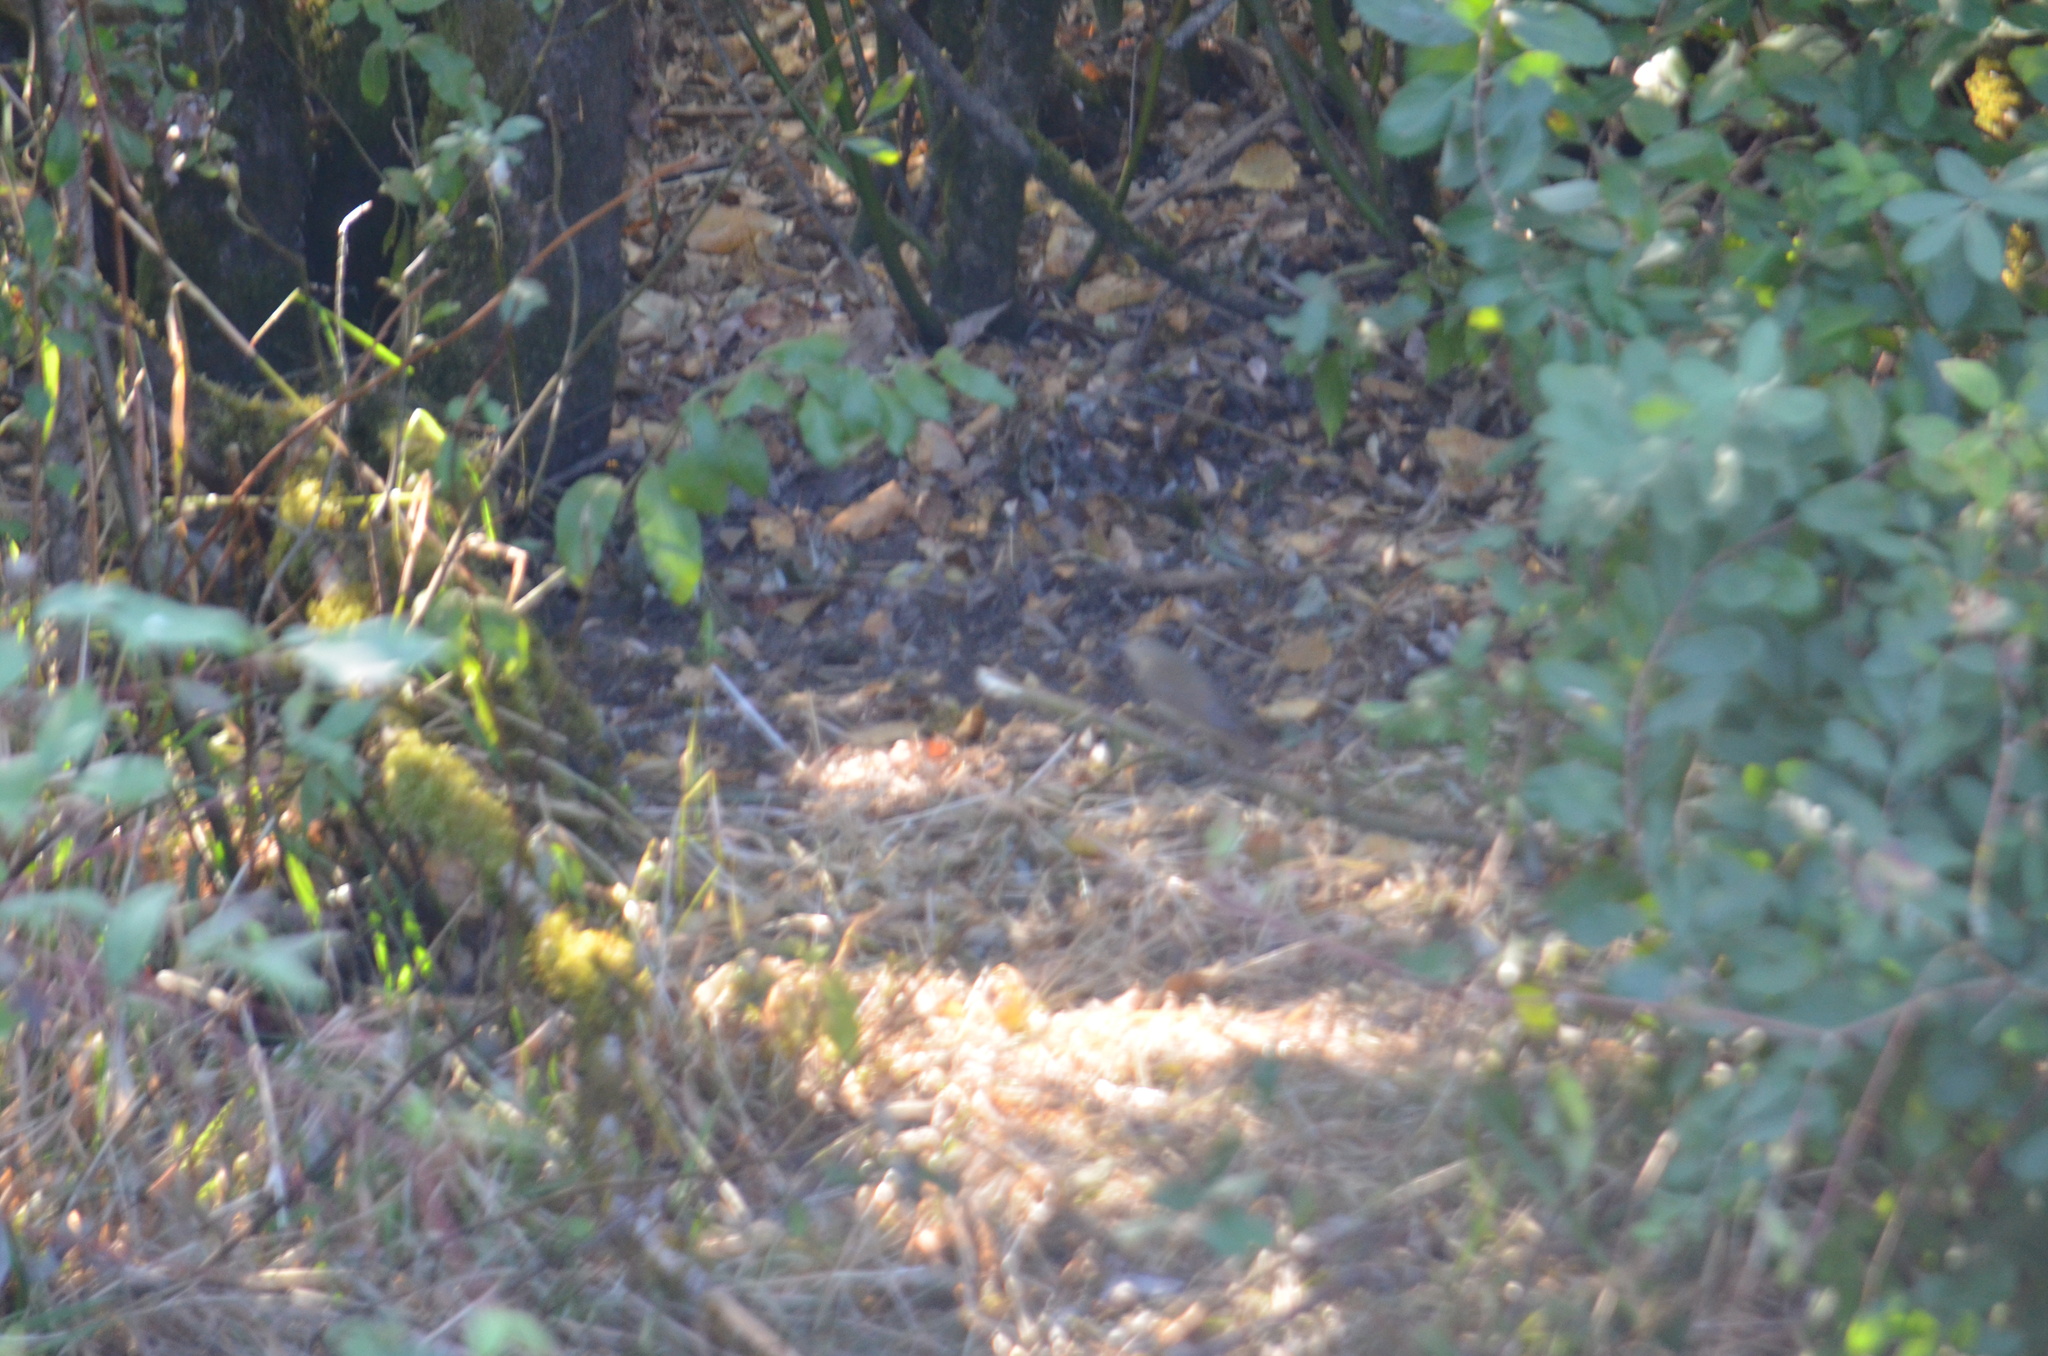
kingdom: Animalia
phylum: Chordata
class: Aves
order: Passeriformes
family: Turdidae
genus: Catharus
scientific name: Catharus ustulatus
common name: Swainson's thrush
